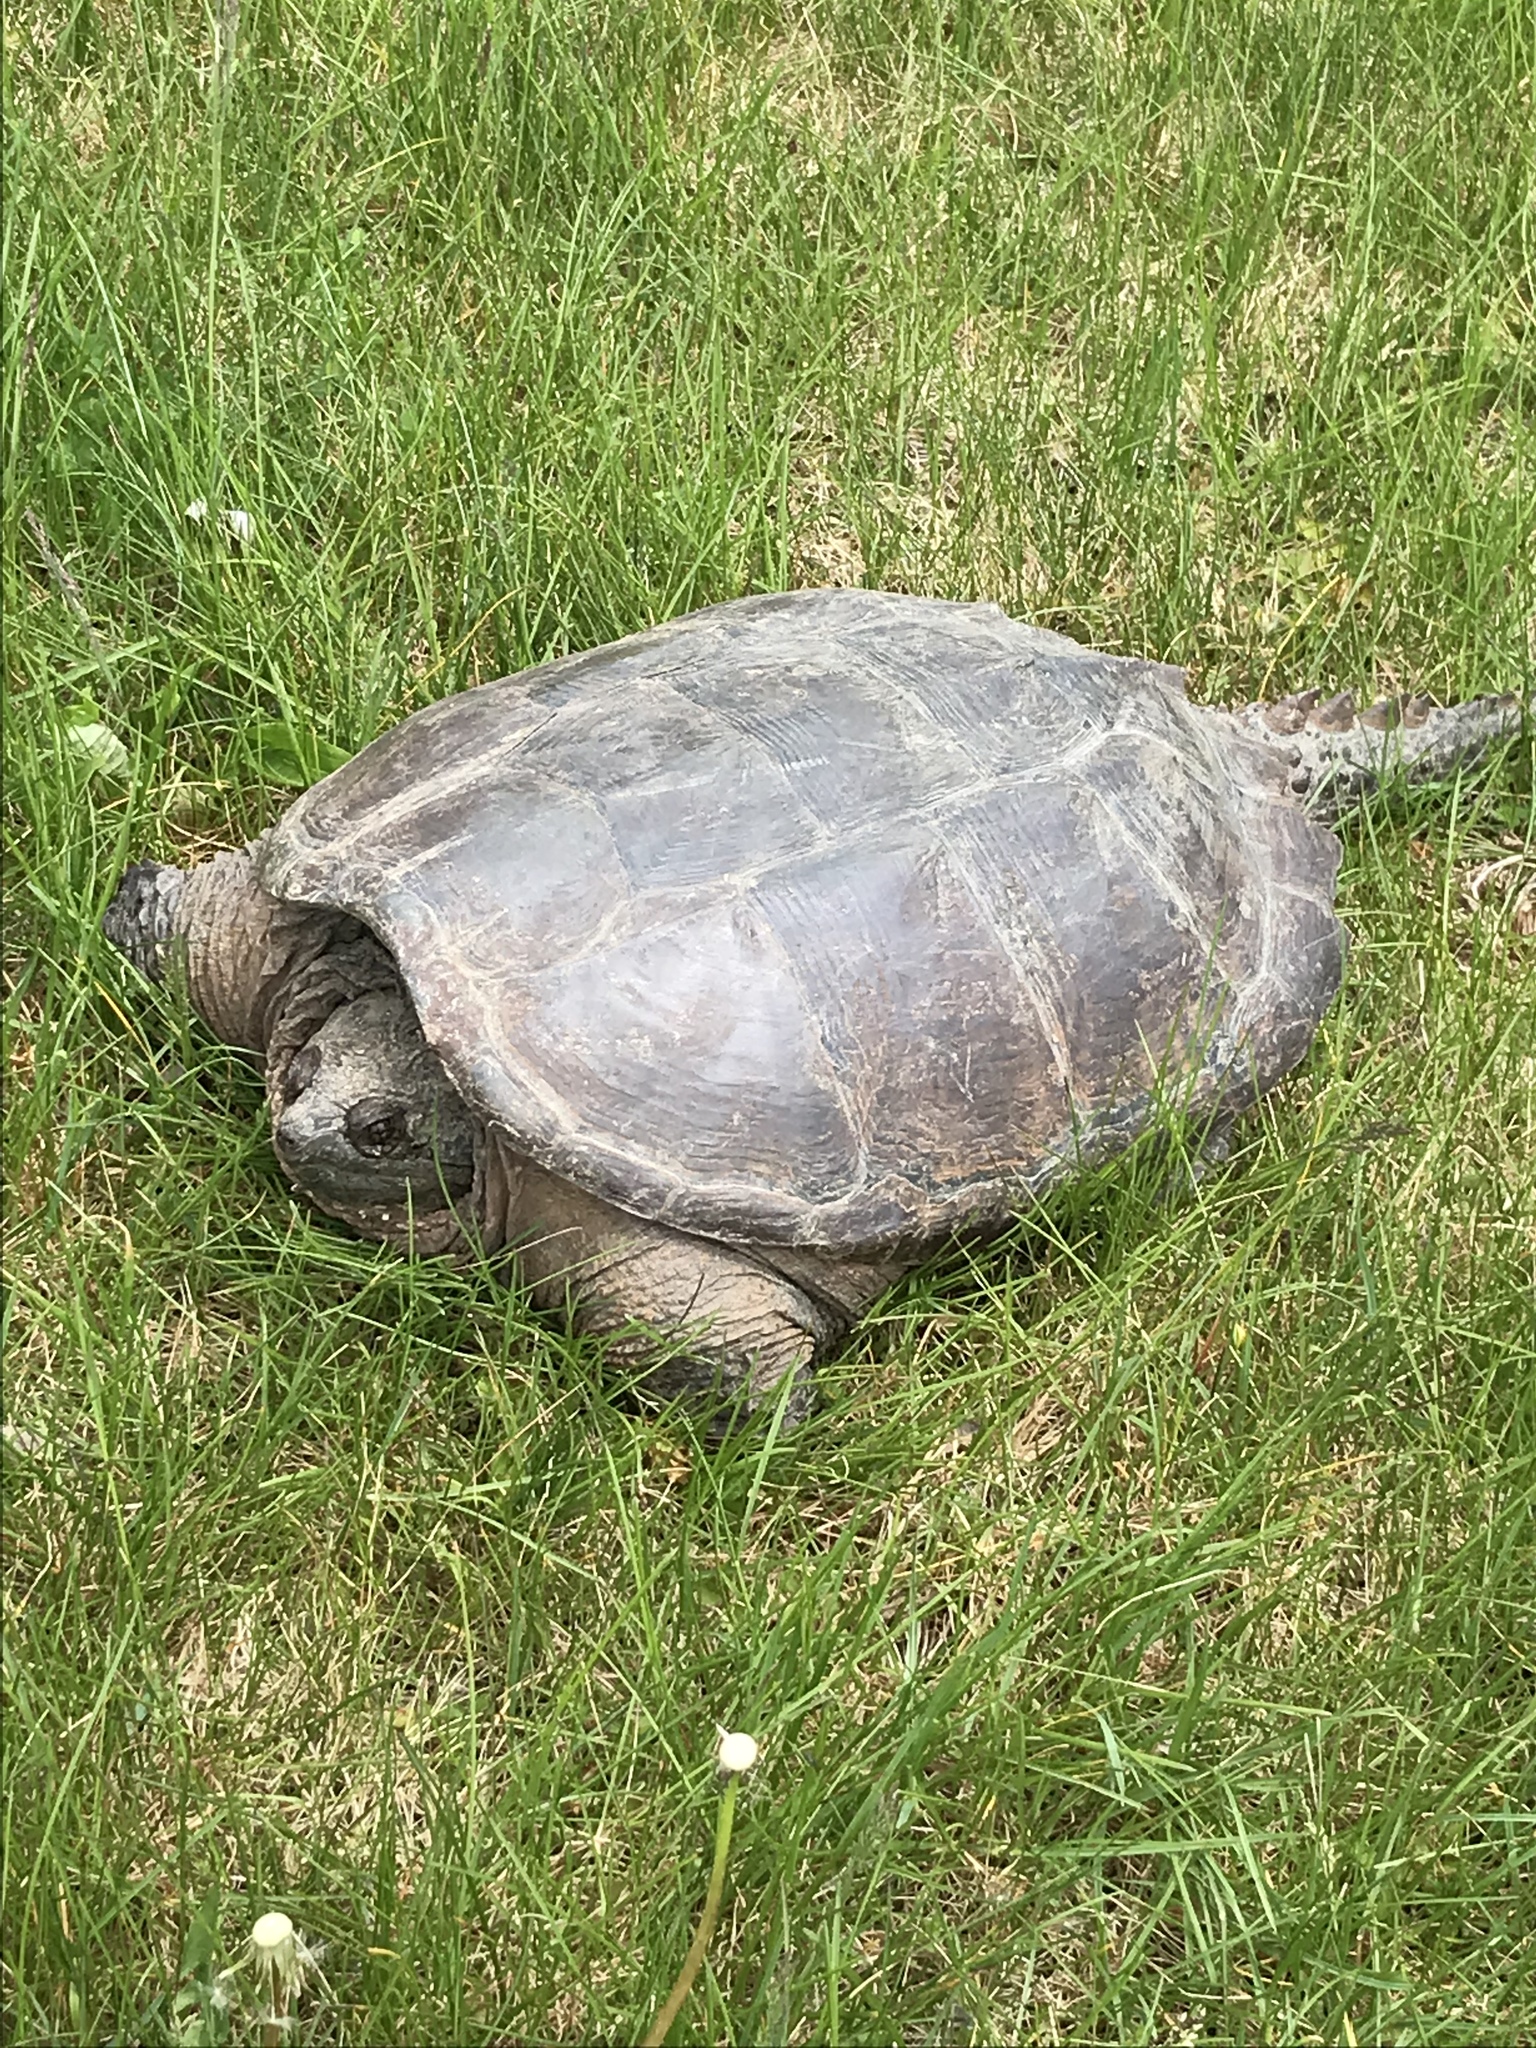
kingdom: Animalia
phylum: Chordata
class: Testudines
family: Chelydridae
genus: Chelydra
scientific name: Chelydra serpentina
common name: Common snapping turtle
